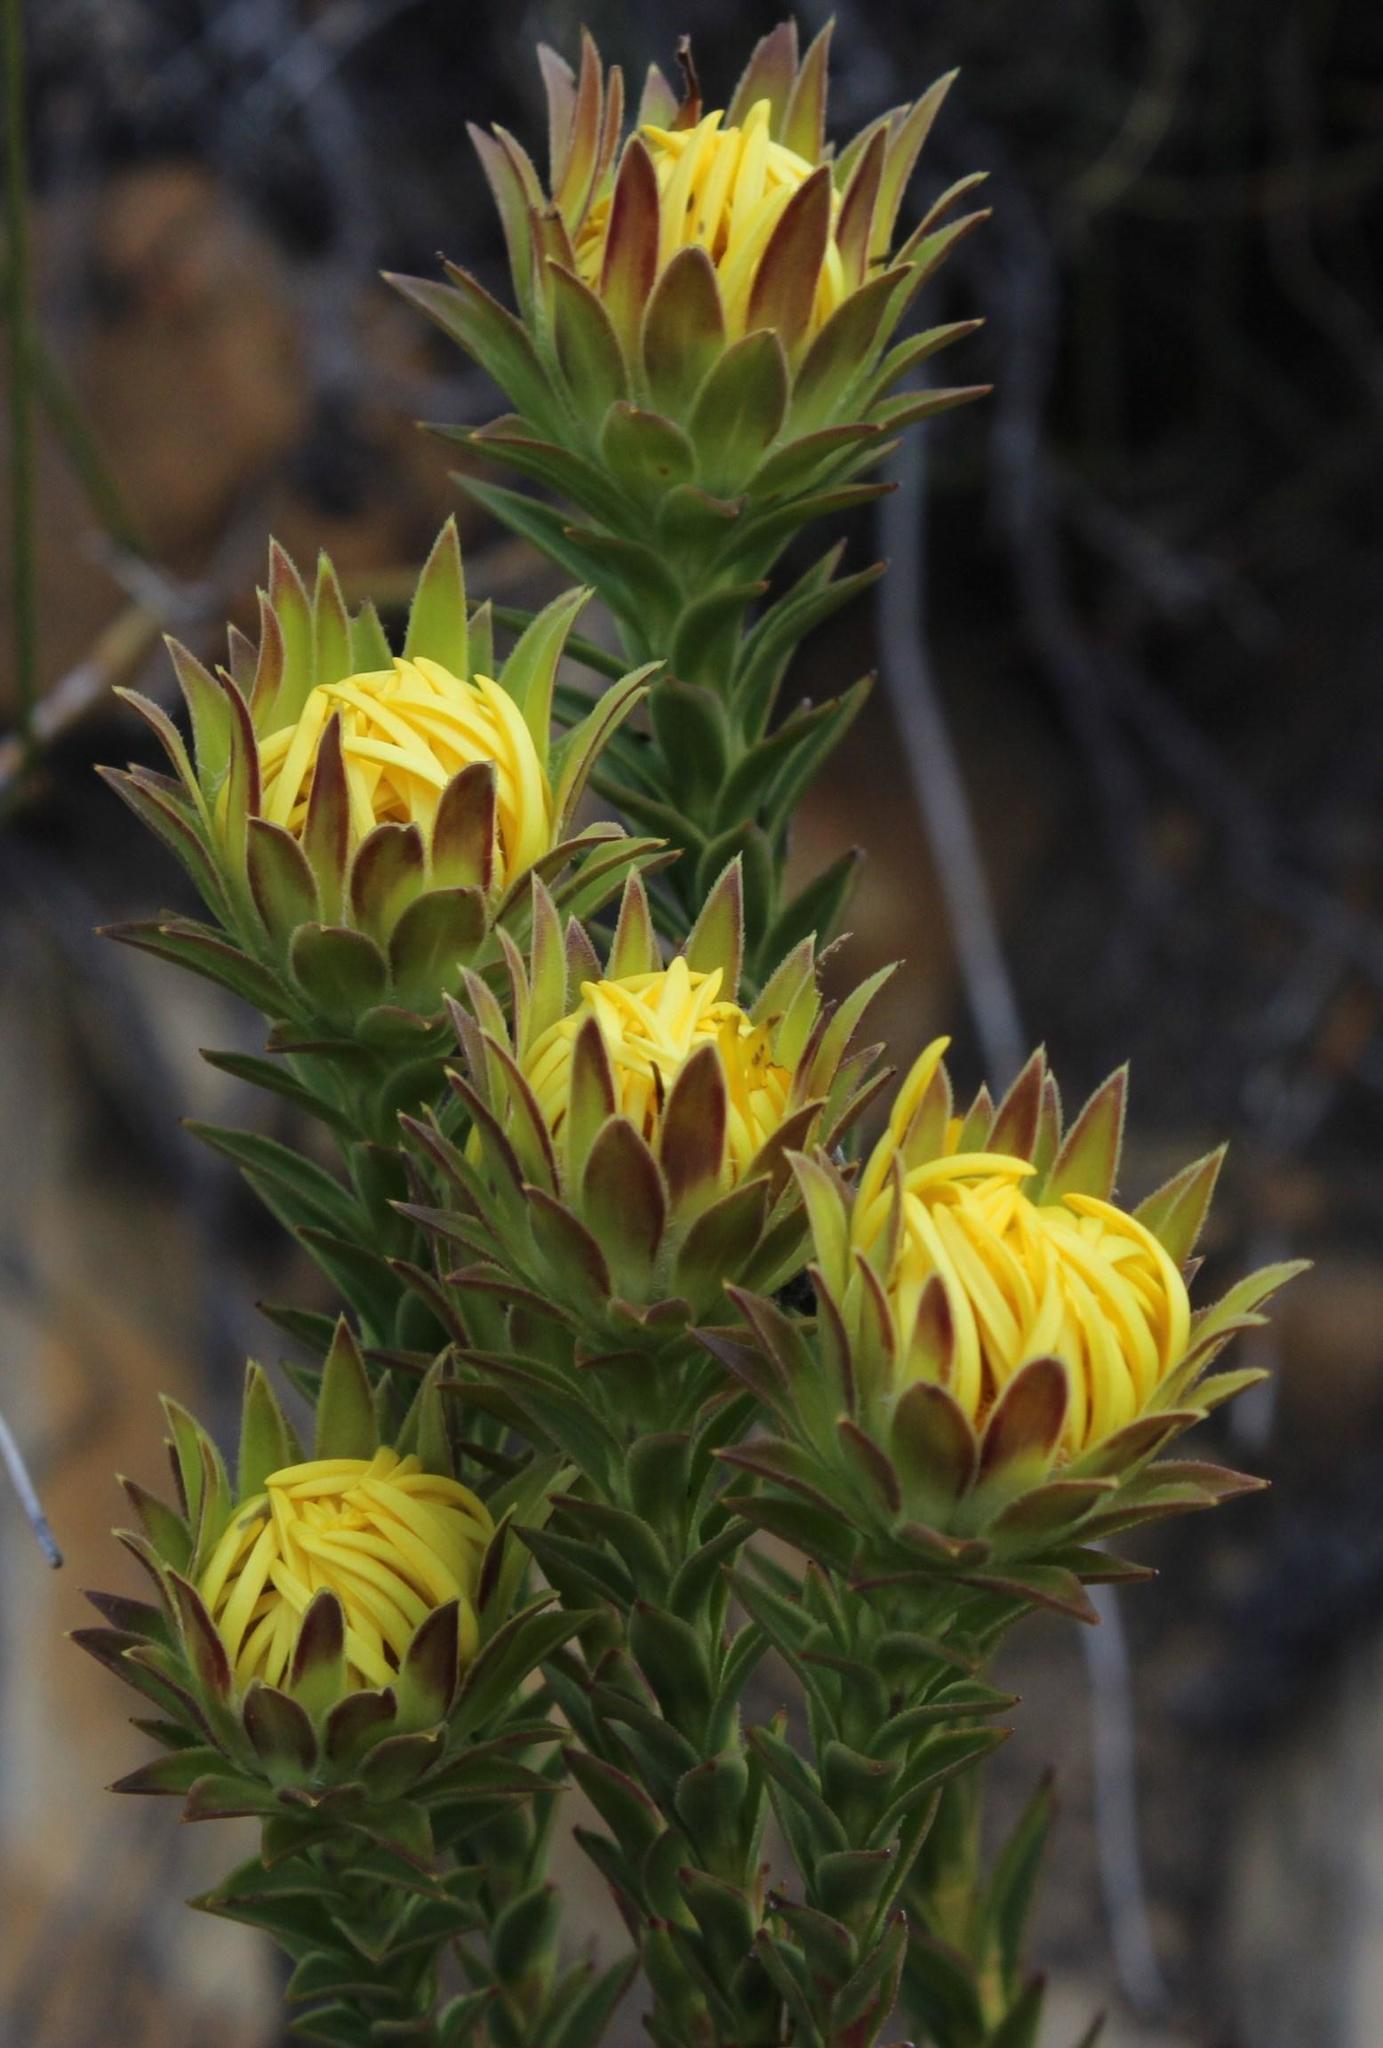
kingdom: Plantae
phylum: Tracheophyta
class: Magnoliopsida
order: Asterales
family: Asteraceae
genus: Oedera
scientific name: Oedera imbricata
